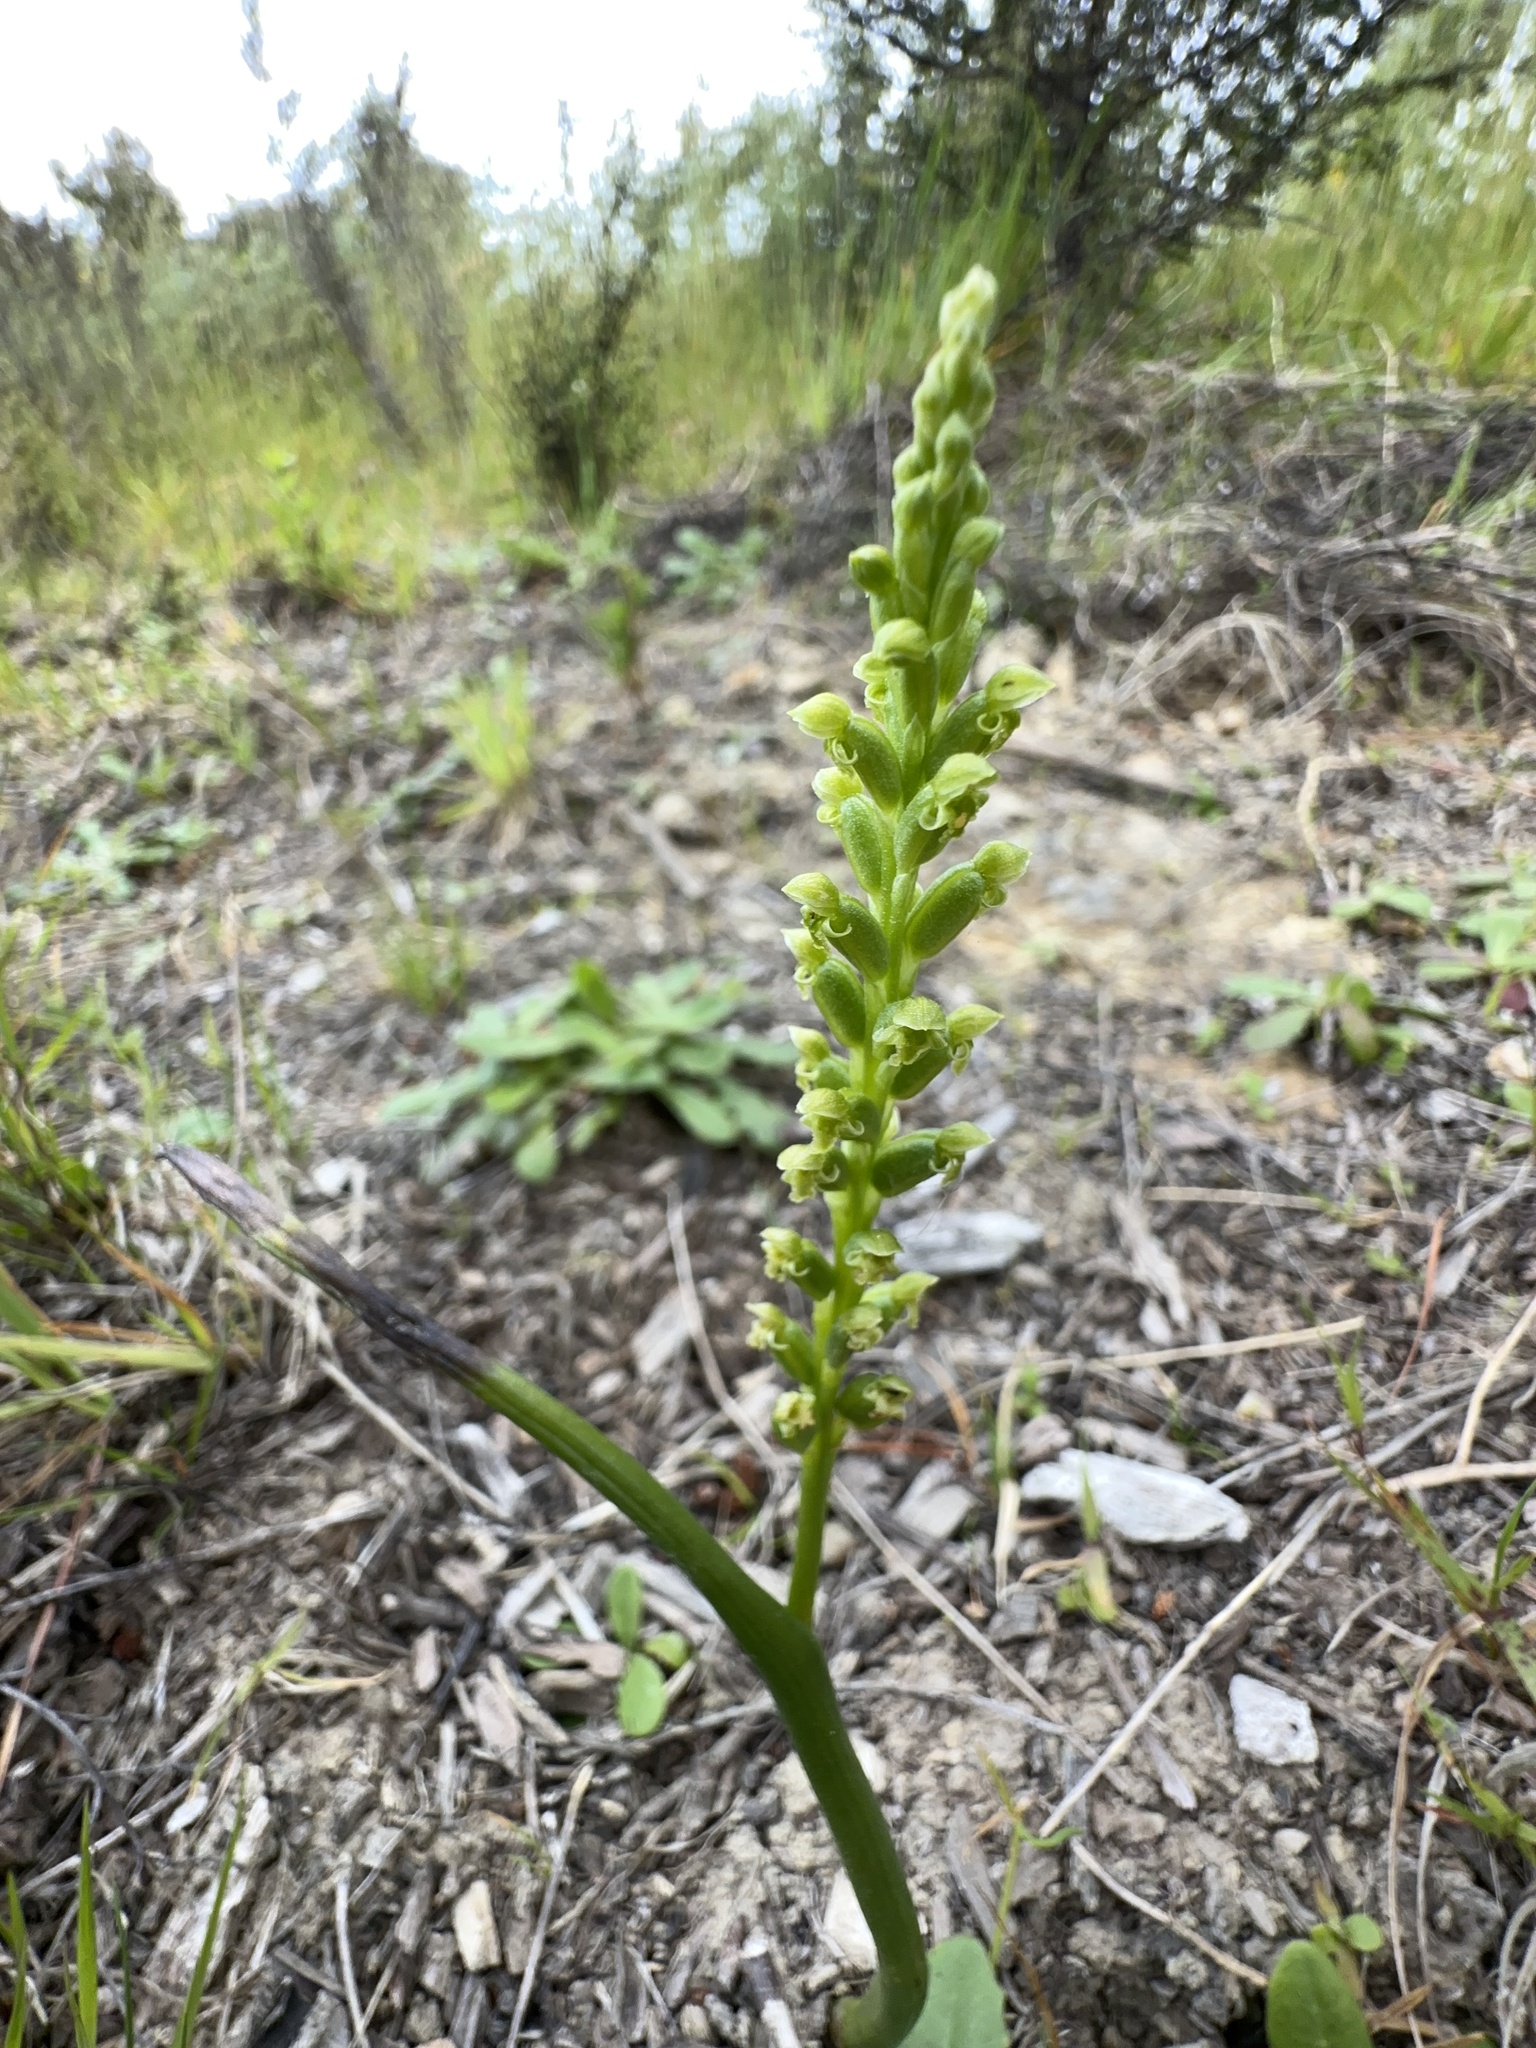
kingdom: Plantae
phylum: Tracheophyta
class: Liliopsida
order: Asparagales
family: Orchidaceae
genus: Microtis
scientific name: Microtis unifolia
